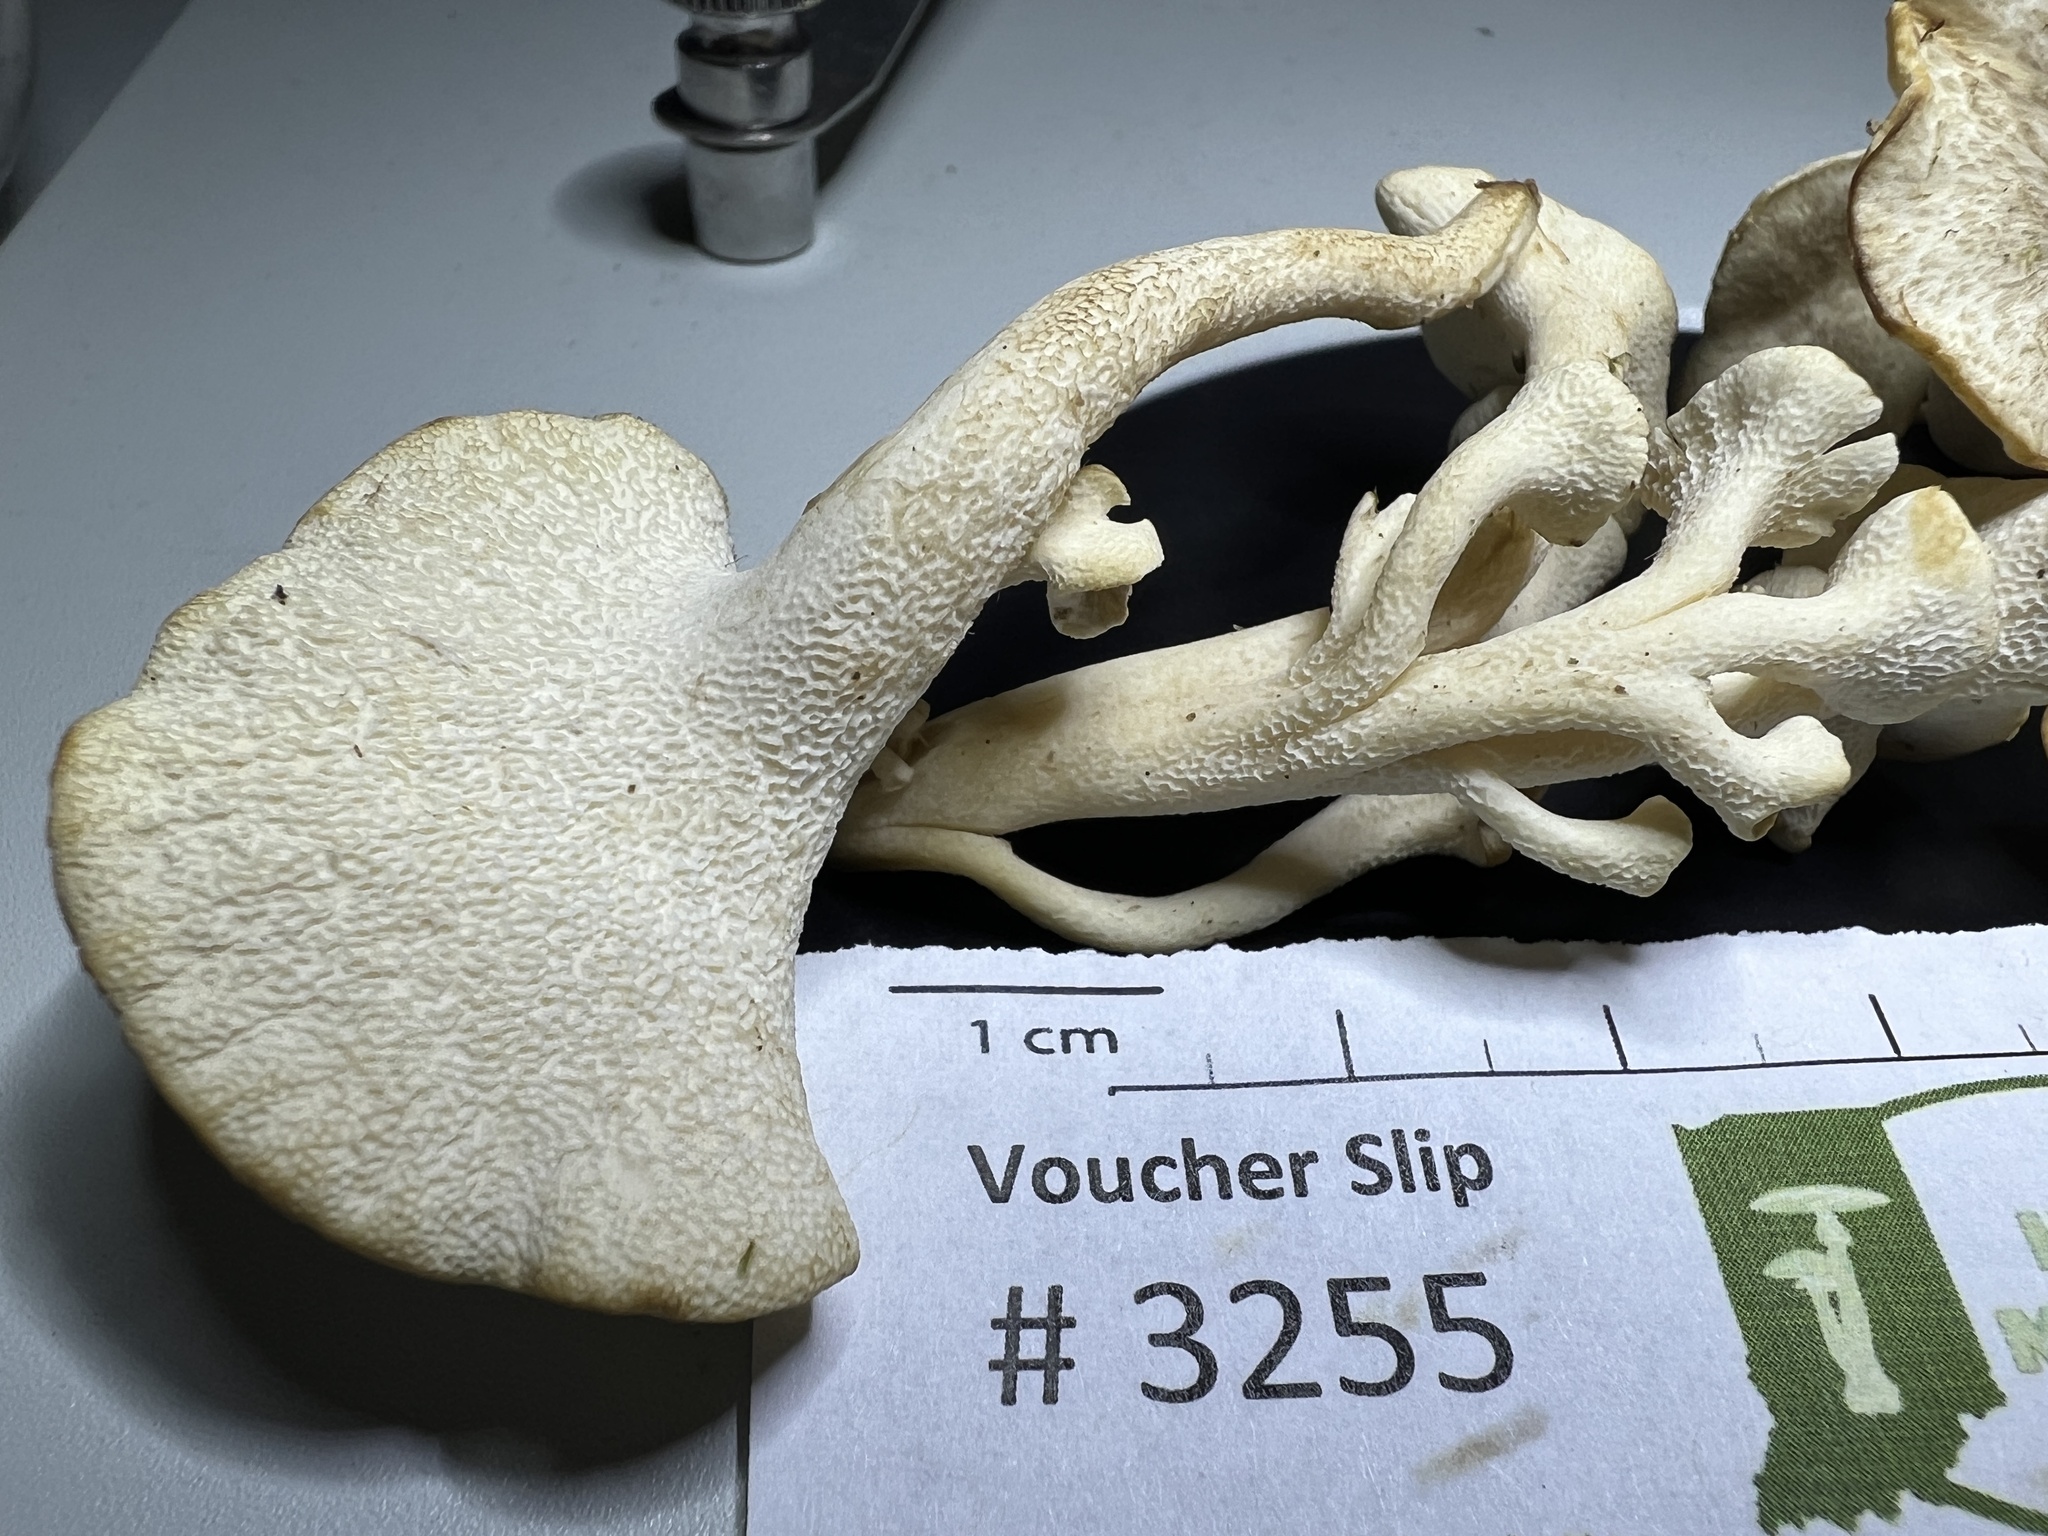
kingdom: Fungi
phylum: Basidiomycota
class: Agaricomycetes
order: Polyporales
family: Polyporaceae
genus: Polyporus
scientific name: Polyporus umbellatus
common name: Umbrella polypore
